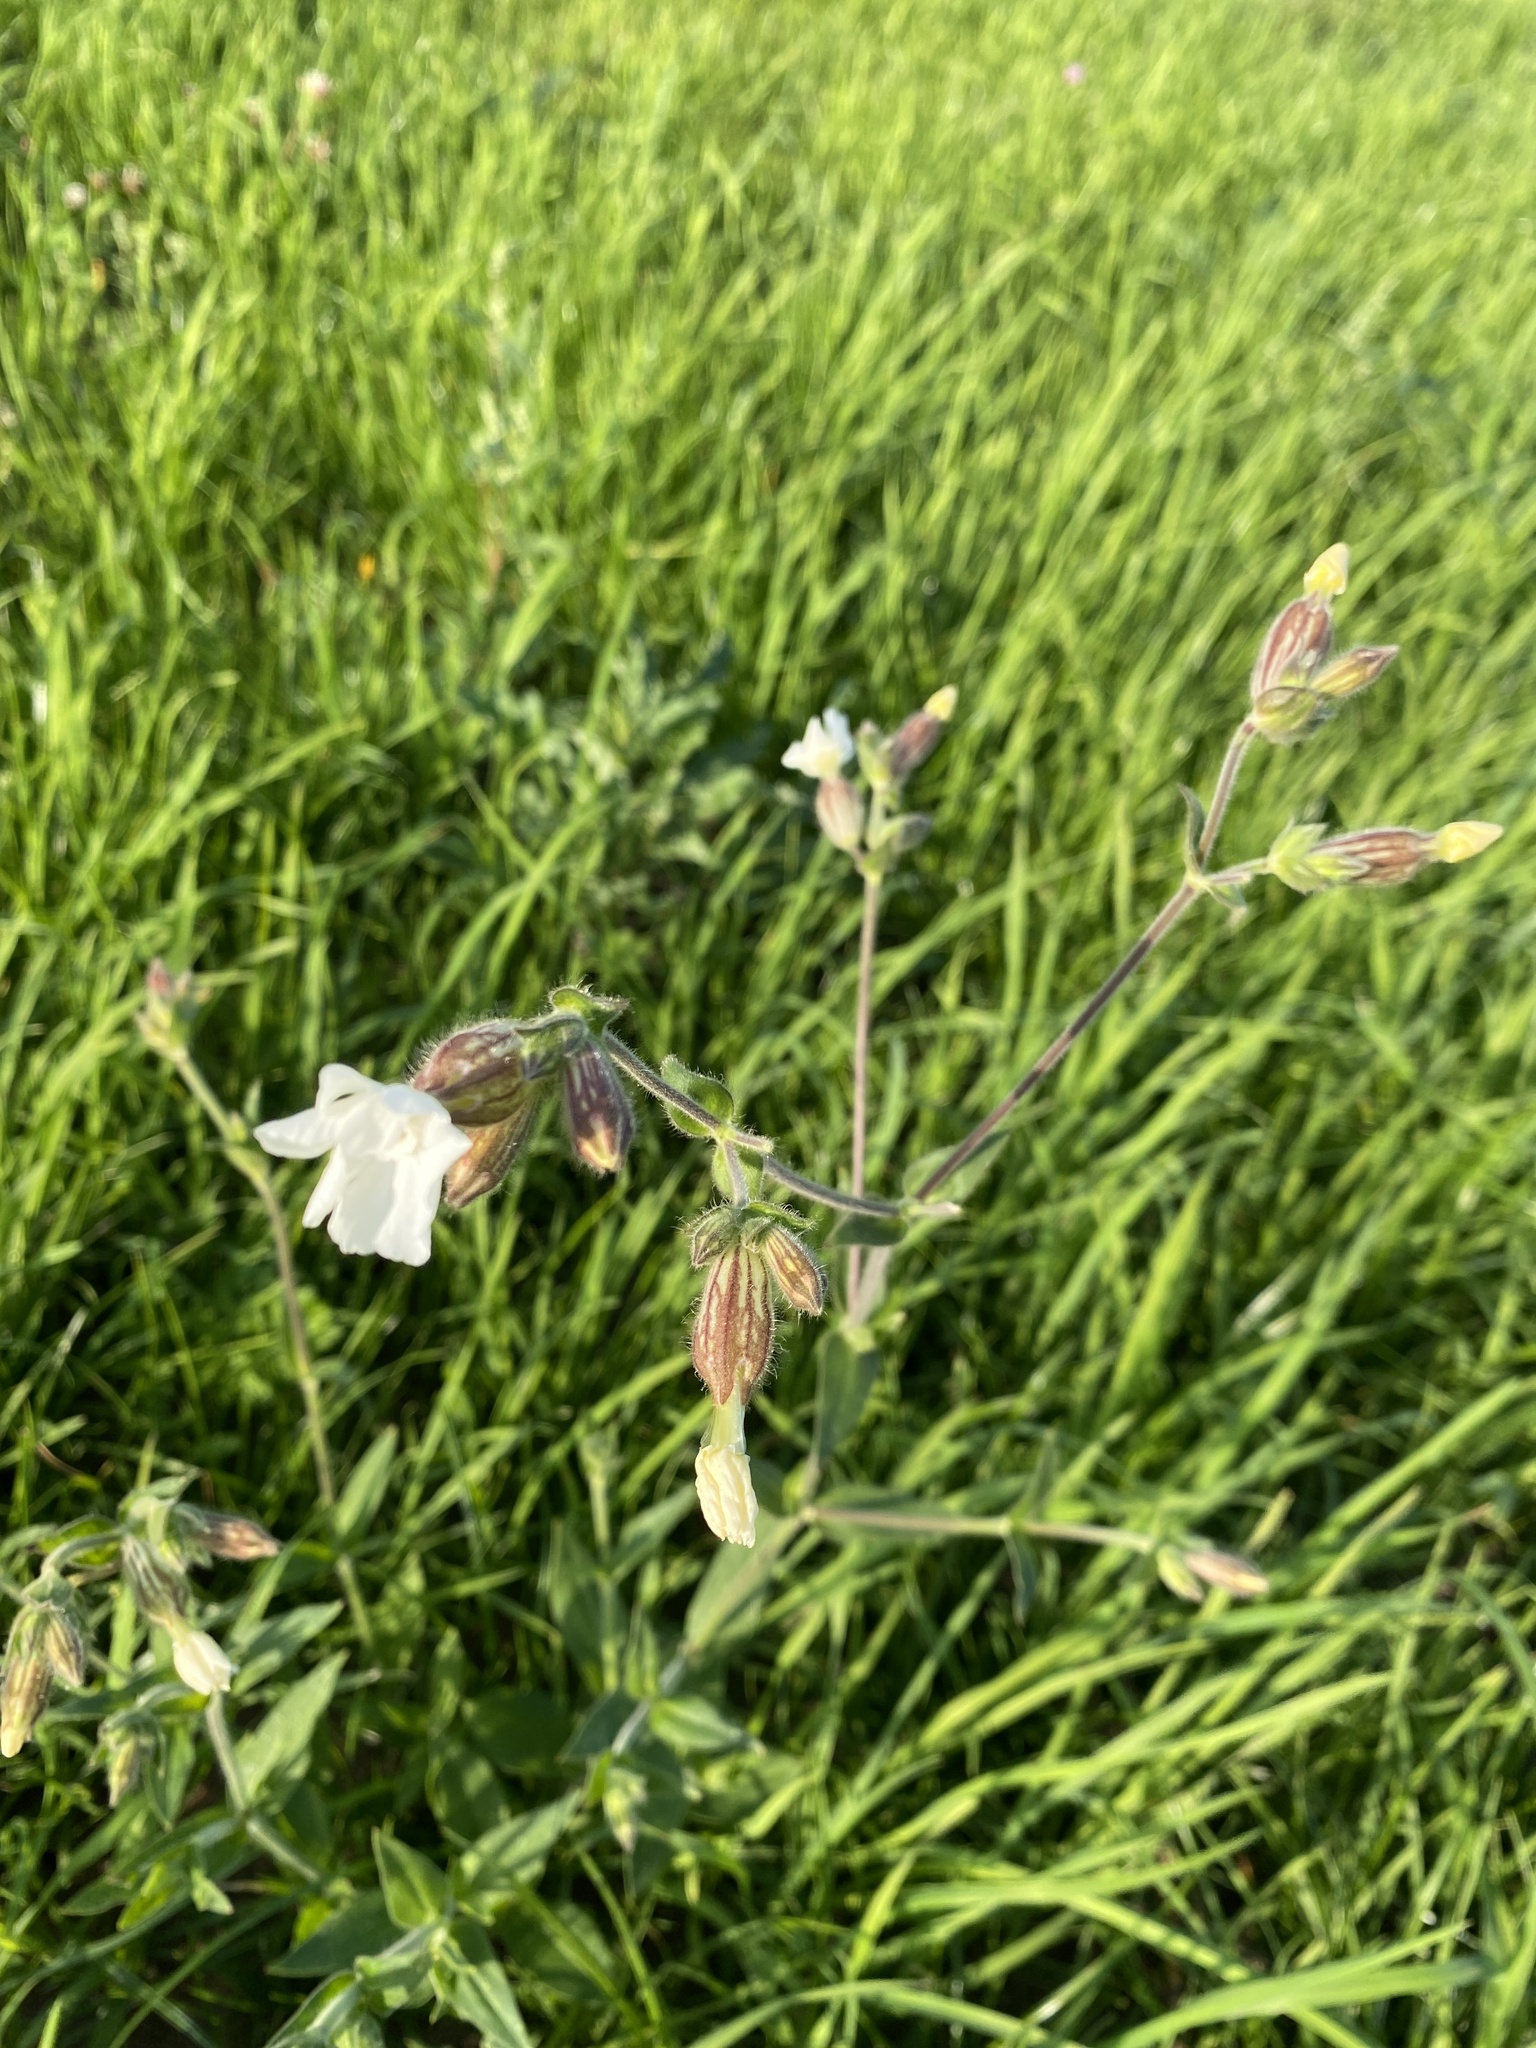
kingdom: Plantae
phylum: Tracheophyta
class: Magnoliopsida
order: Caryophyllales
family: Caryophyllaceae
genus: Silene
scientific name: Silene latifolia
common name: White campion
